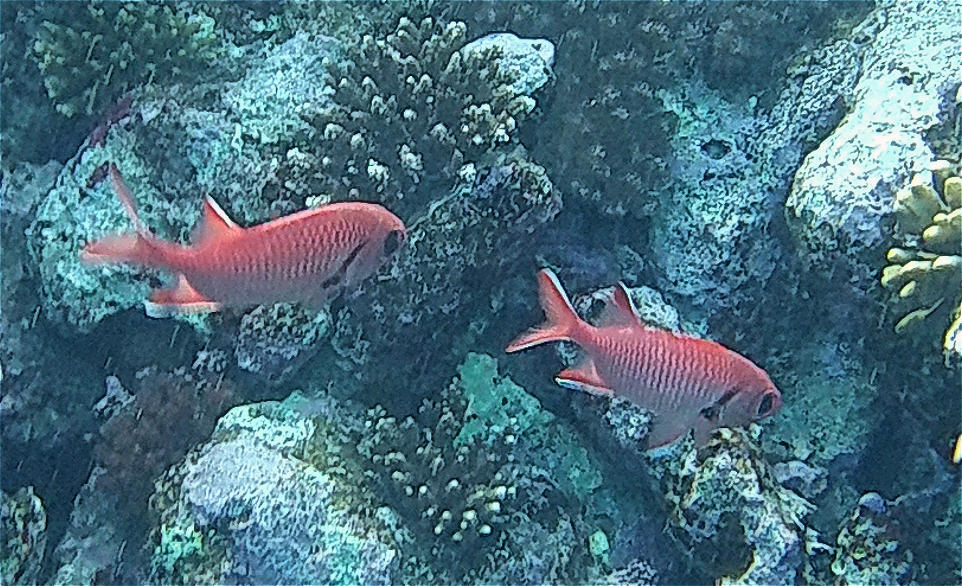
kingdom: Animalia
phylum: Chordata
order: Beryciformes
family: Holocentridae
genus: Myripristis
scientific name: Myripristis murdjan
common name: Big-eye soldierfish
